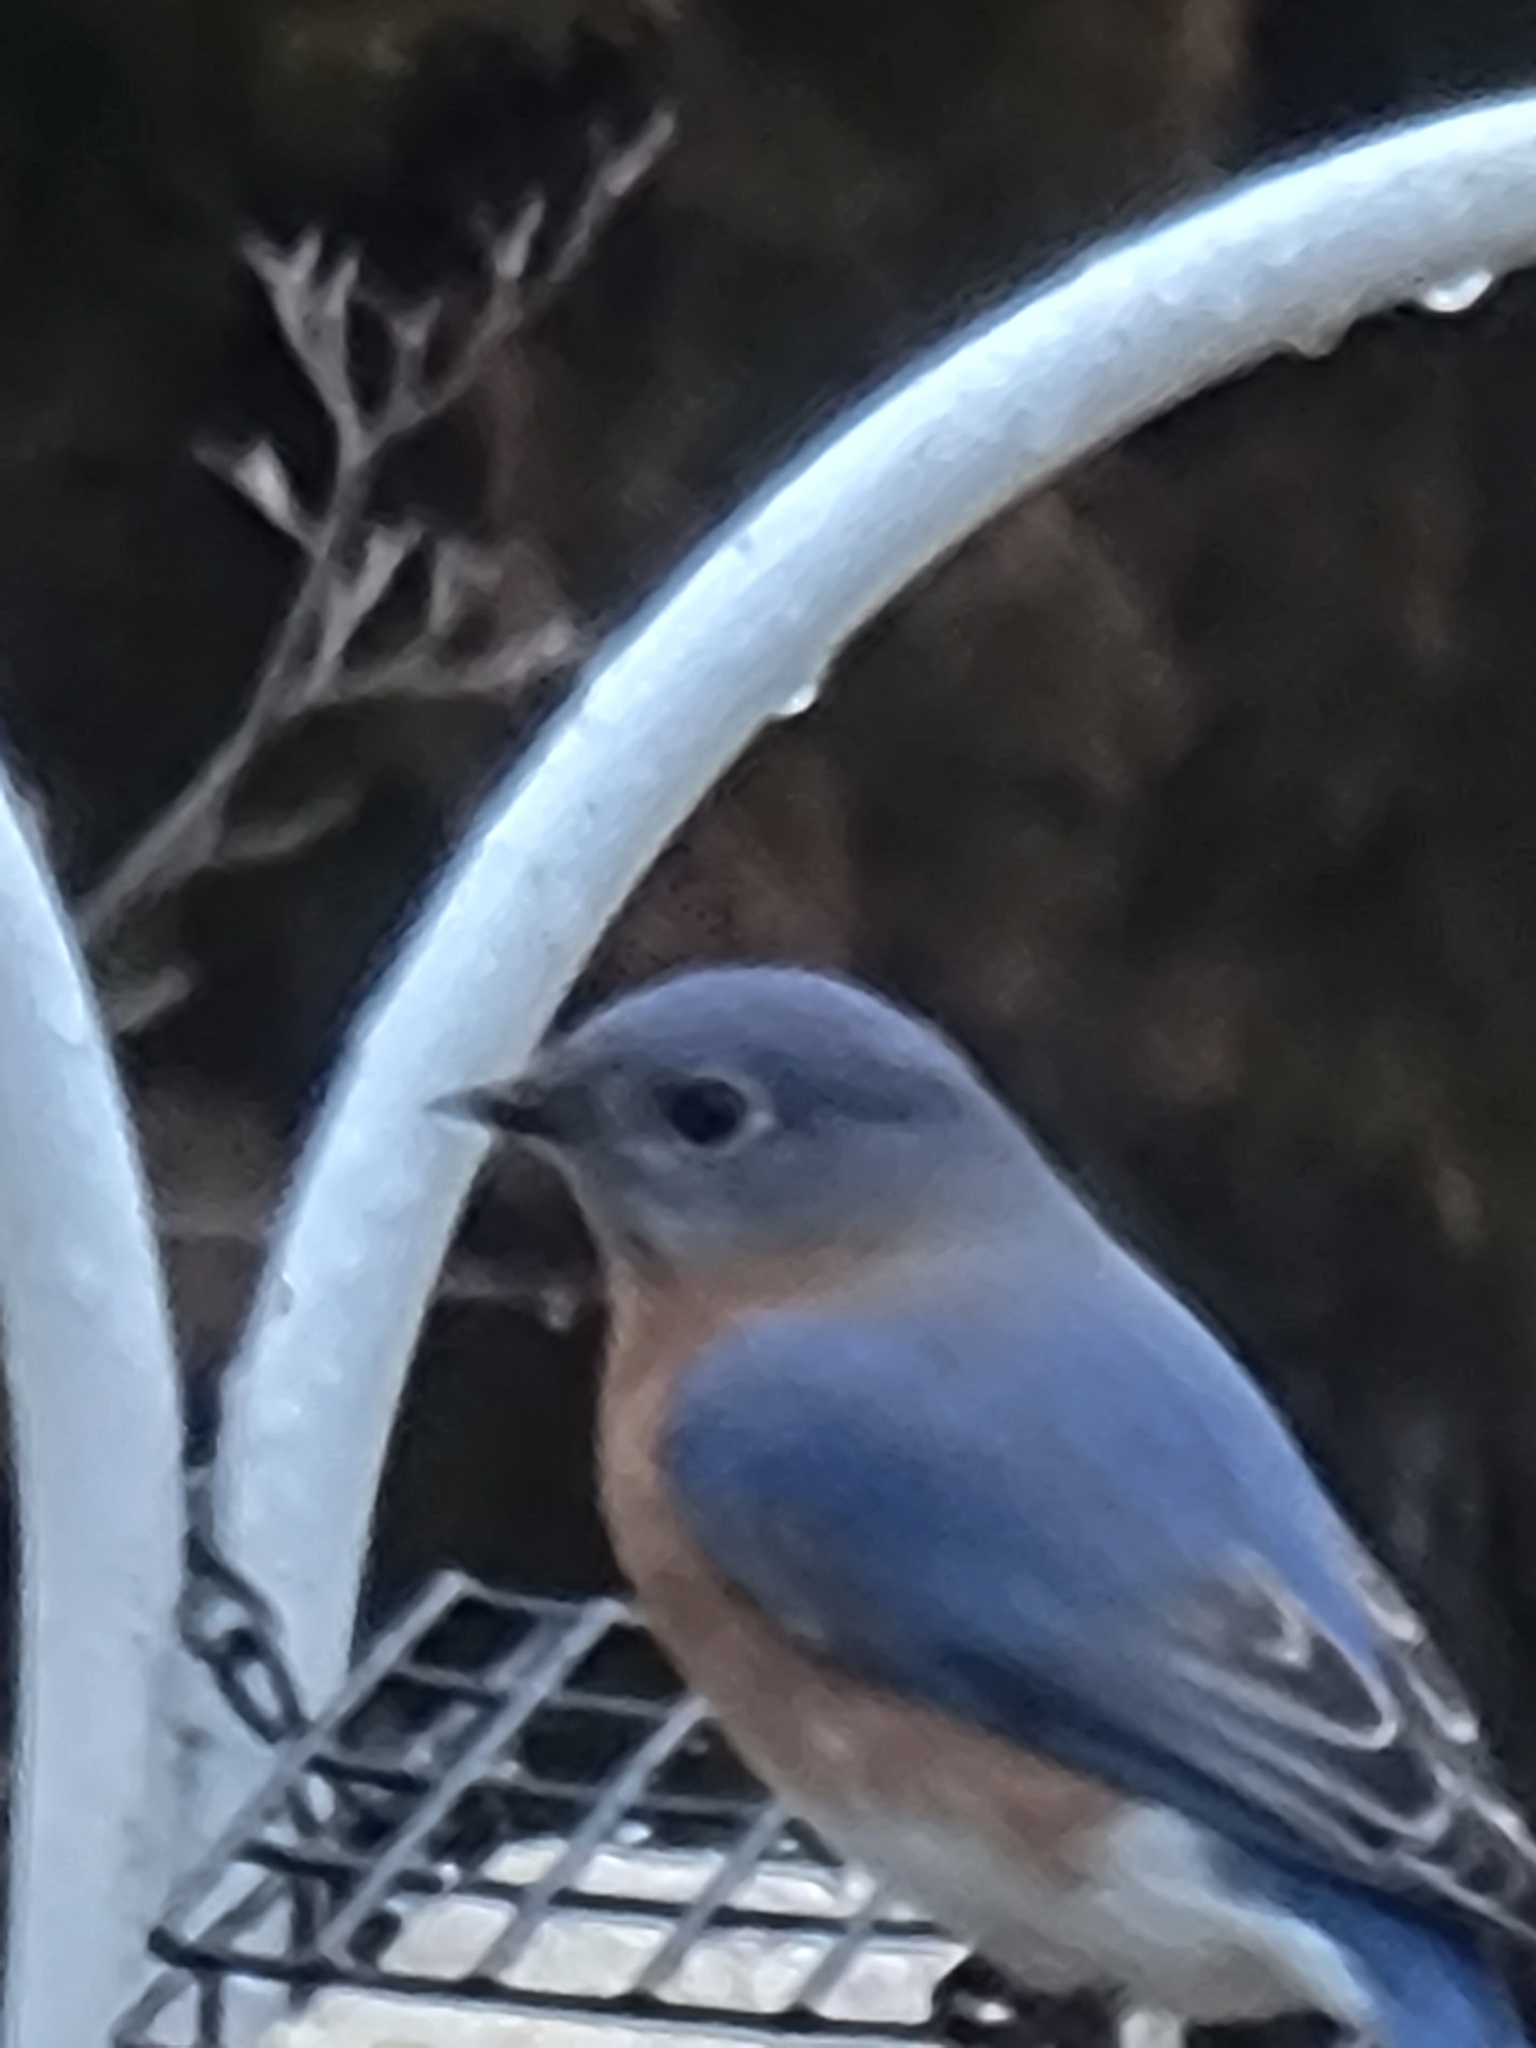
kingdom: Animalia
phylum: Chordata
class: Aves
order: Passeriformes
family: Turdidae
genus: Sialia
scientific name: Sialia sialis
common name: Eastern bluebird
